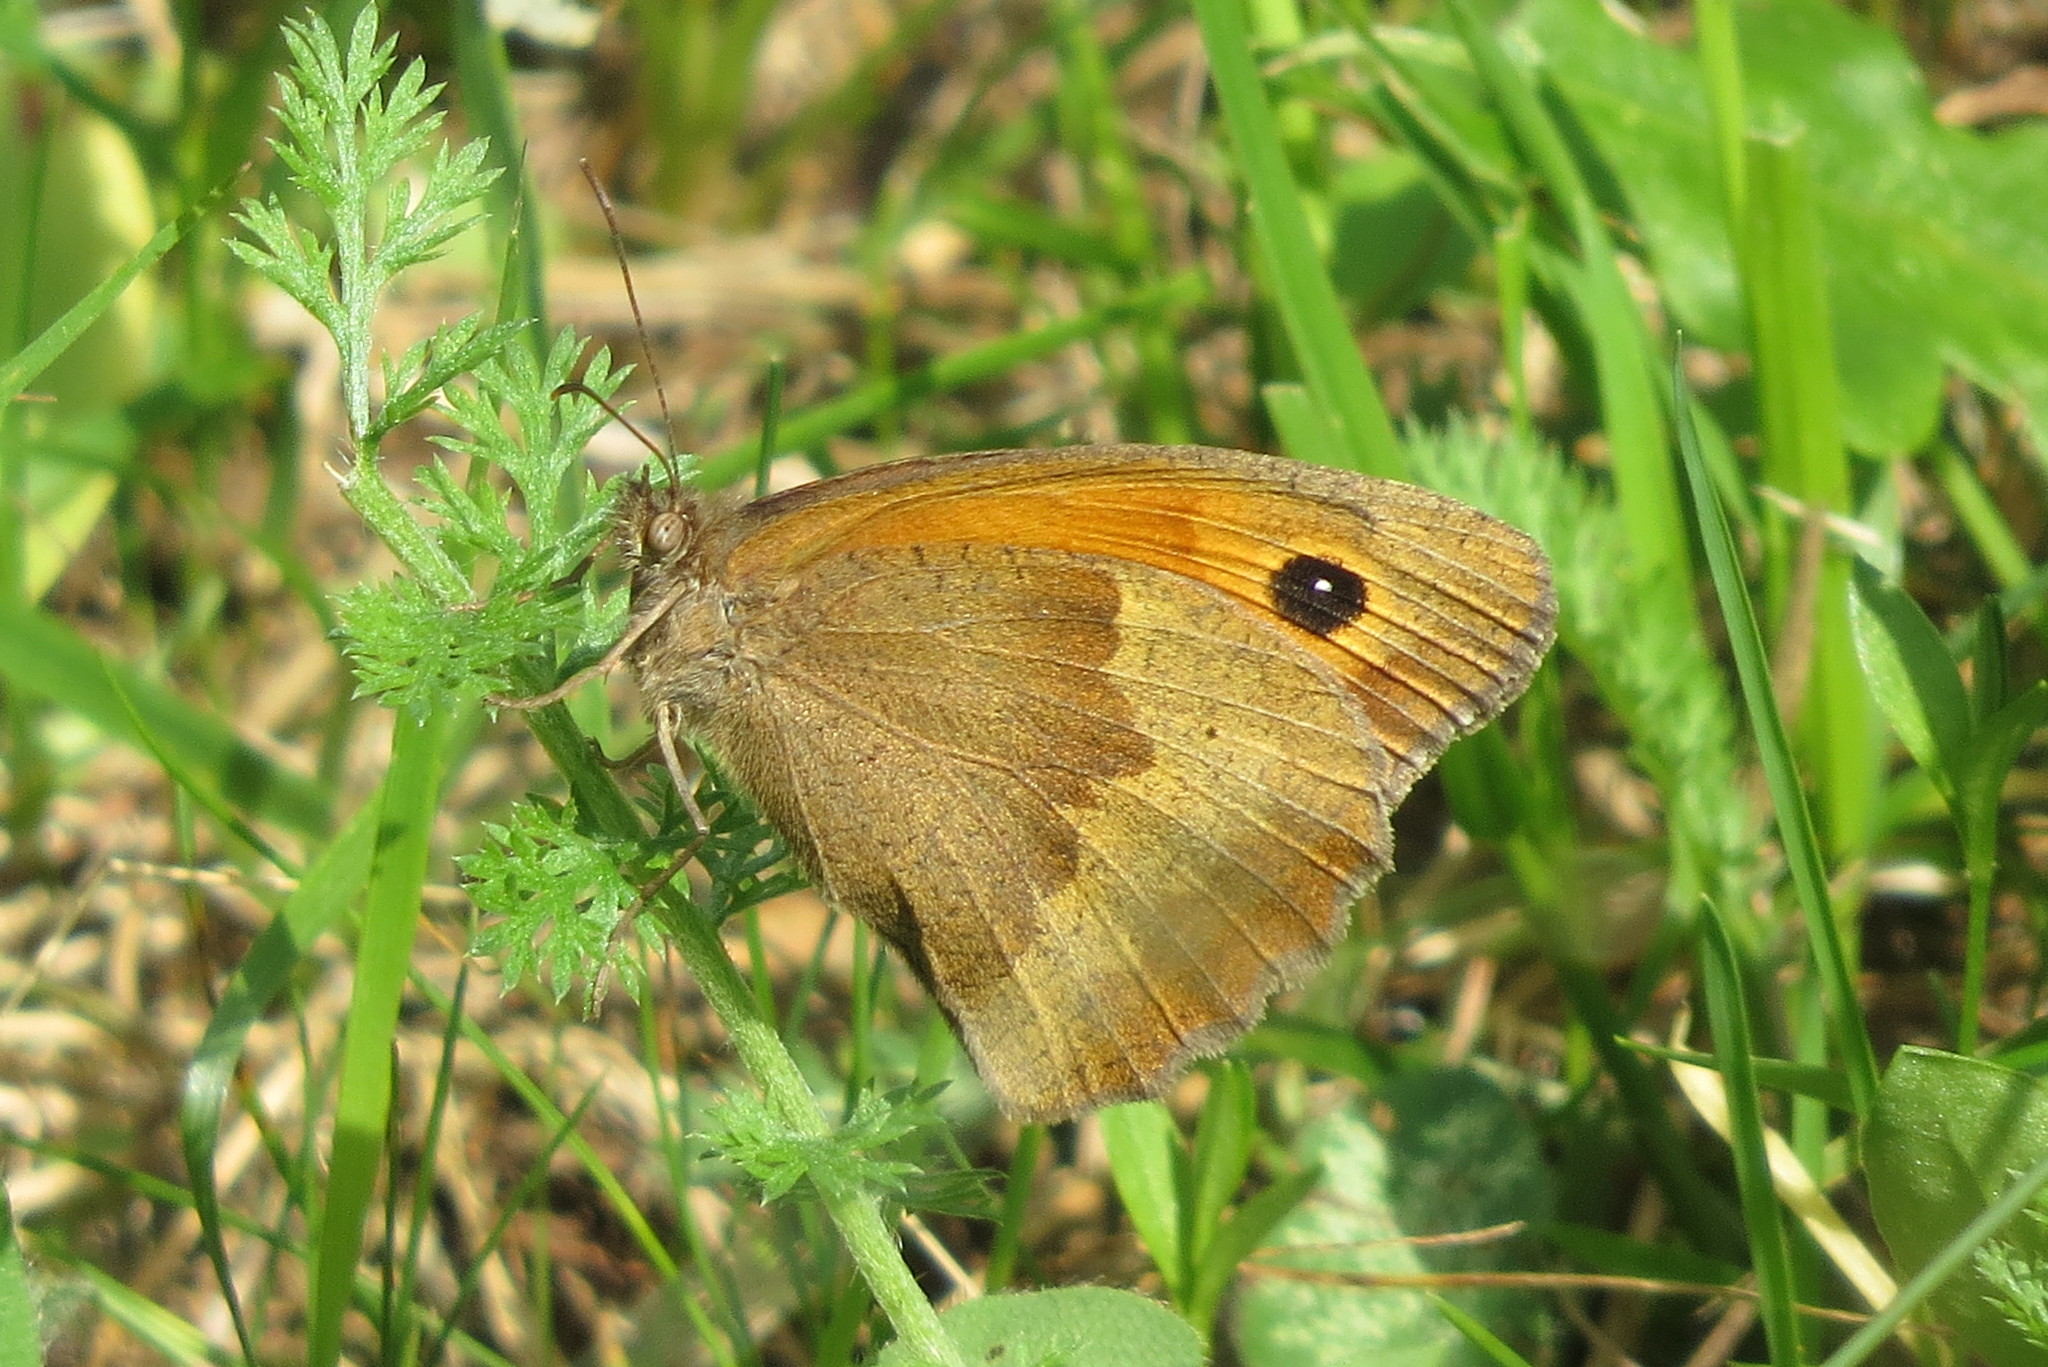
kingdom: Animalia
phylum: Arthropoda
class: Insecta
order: Lepidoptera
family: Nymphalidae
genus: Maniola
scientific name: Maniola jurtina
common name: Meadow brown
